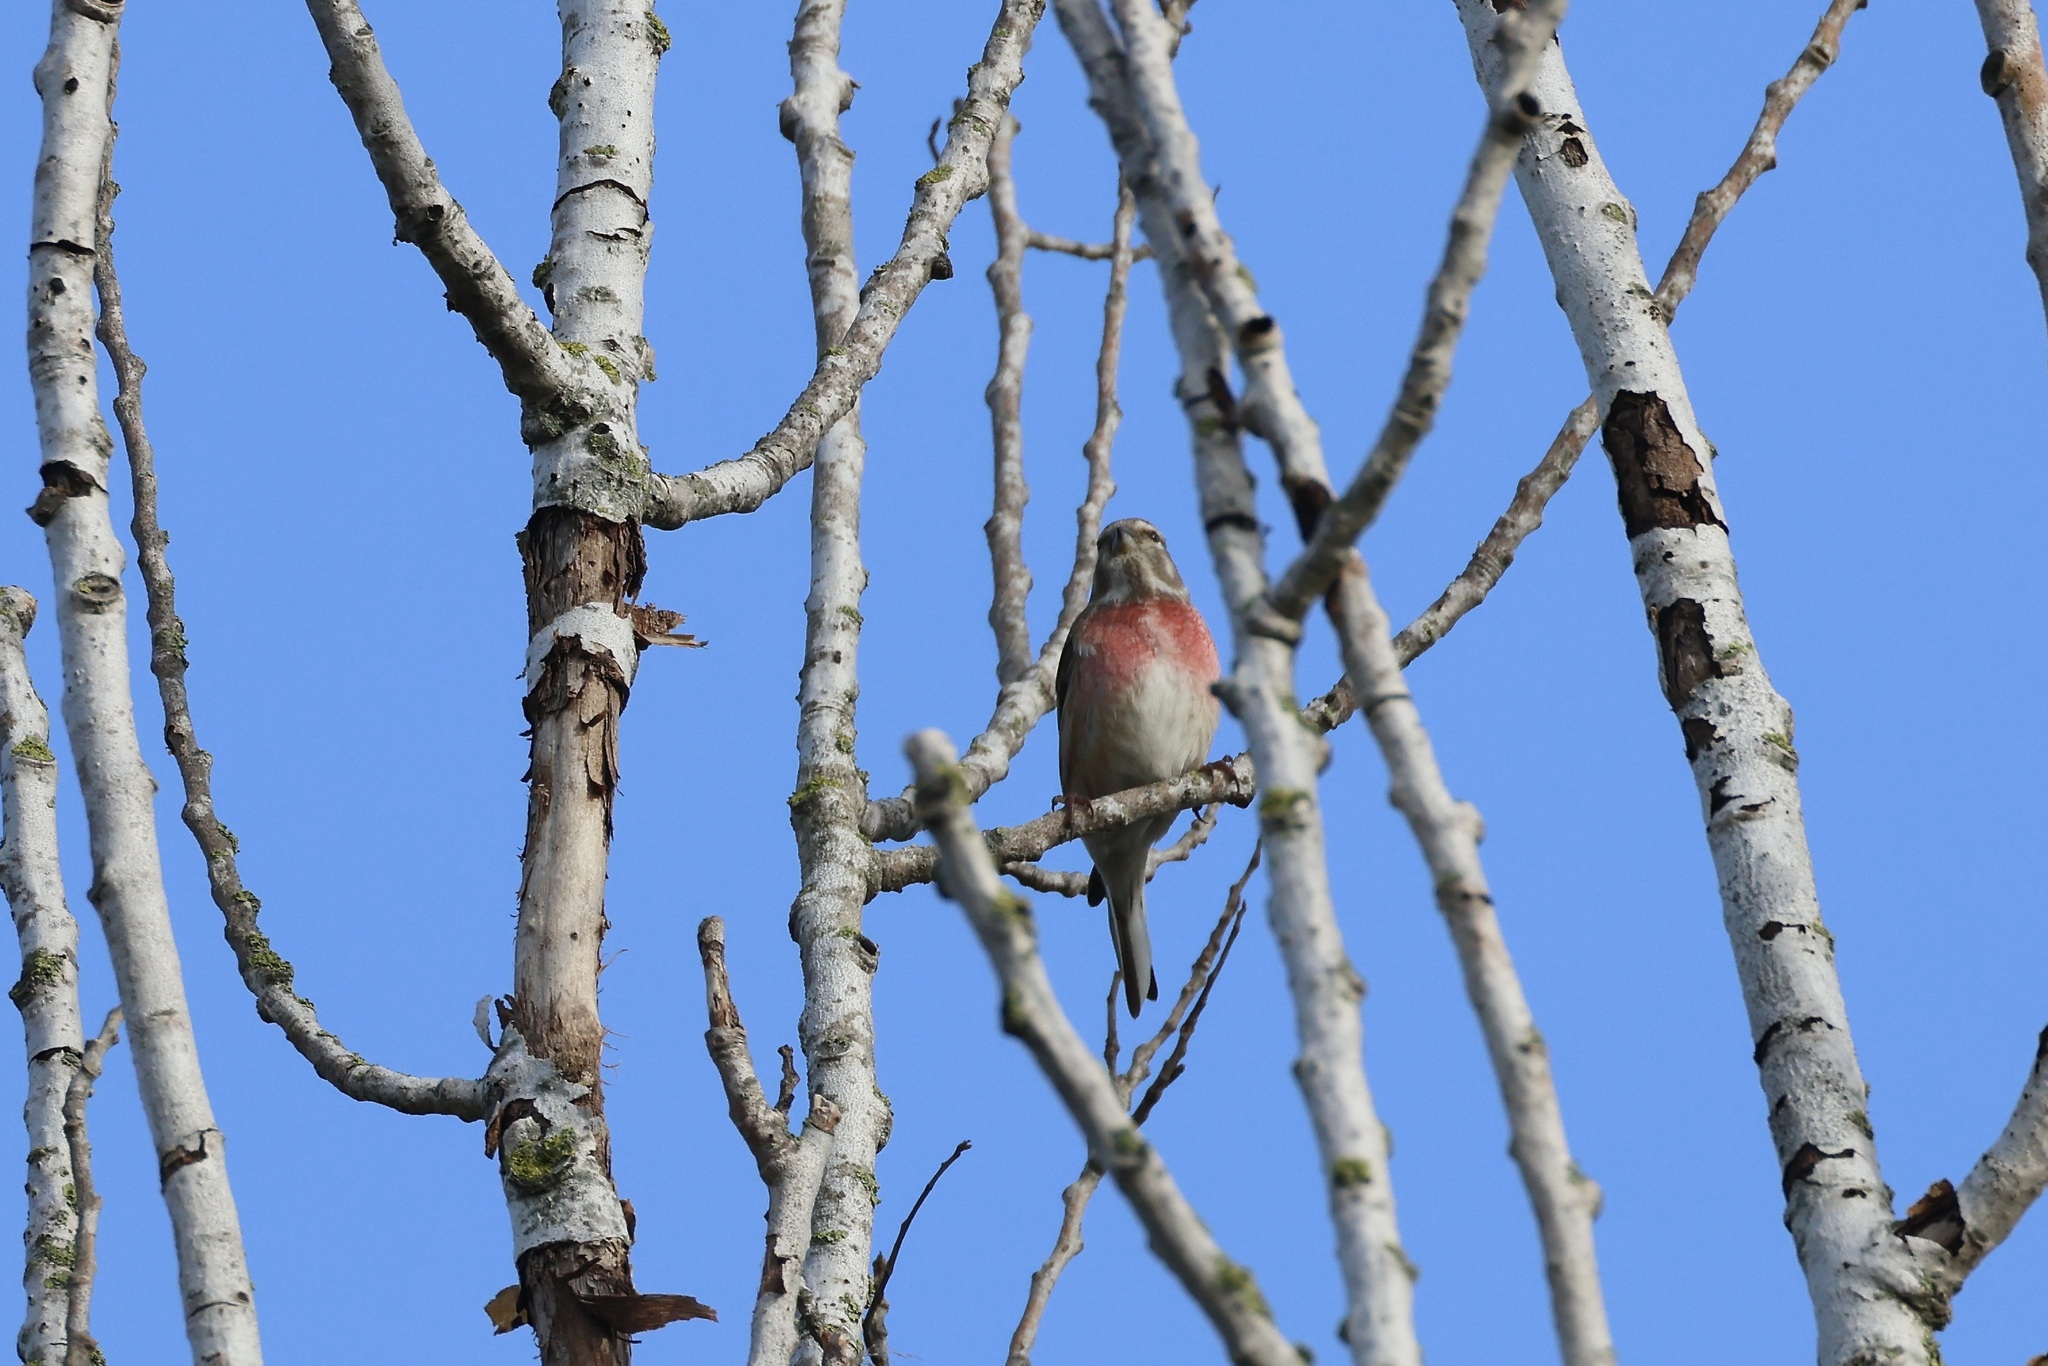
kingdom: Animalia
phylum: Chordata
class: Aves
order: Passeriformes
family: Fringillidae
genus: Linaria
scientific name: Linaria cannabina
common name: Common linnet
